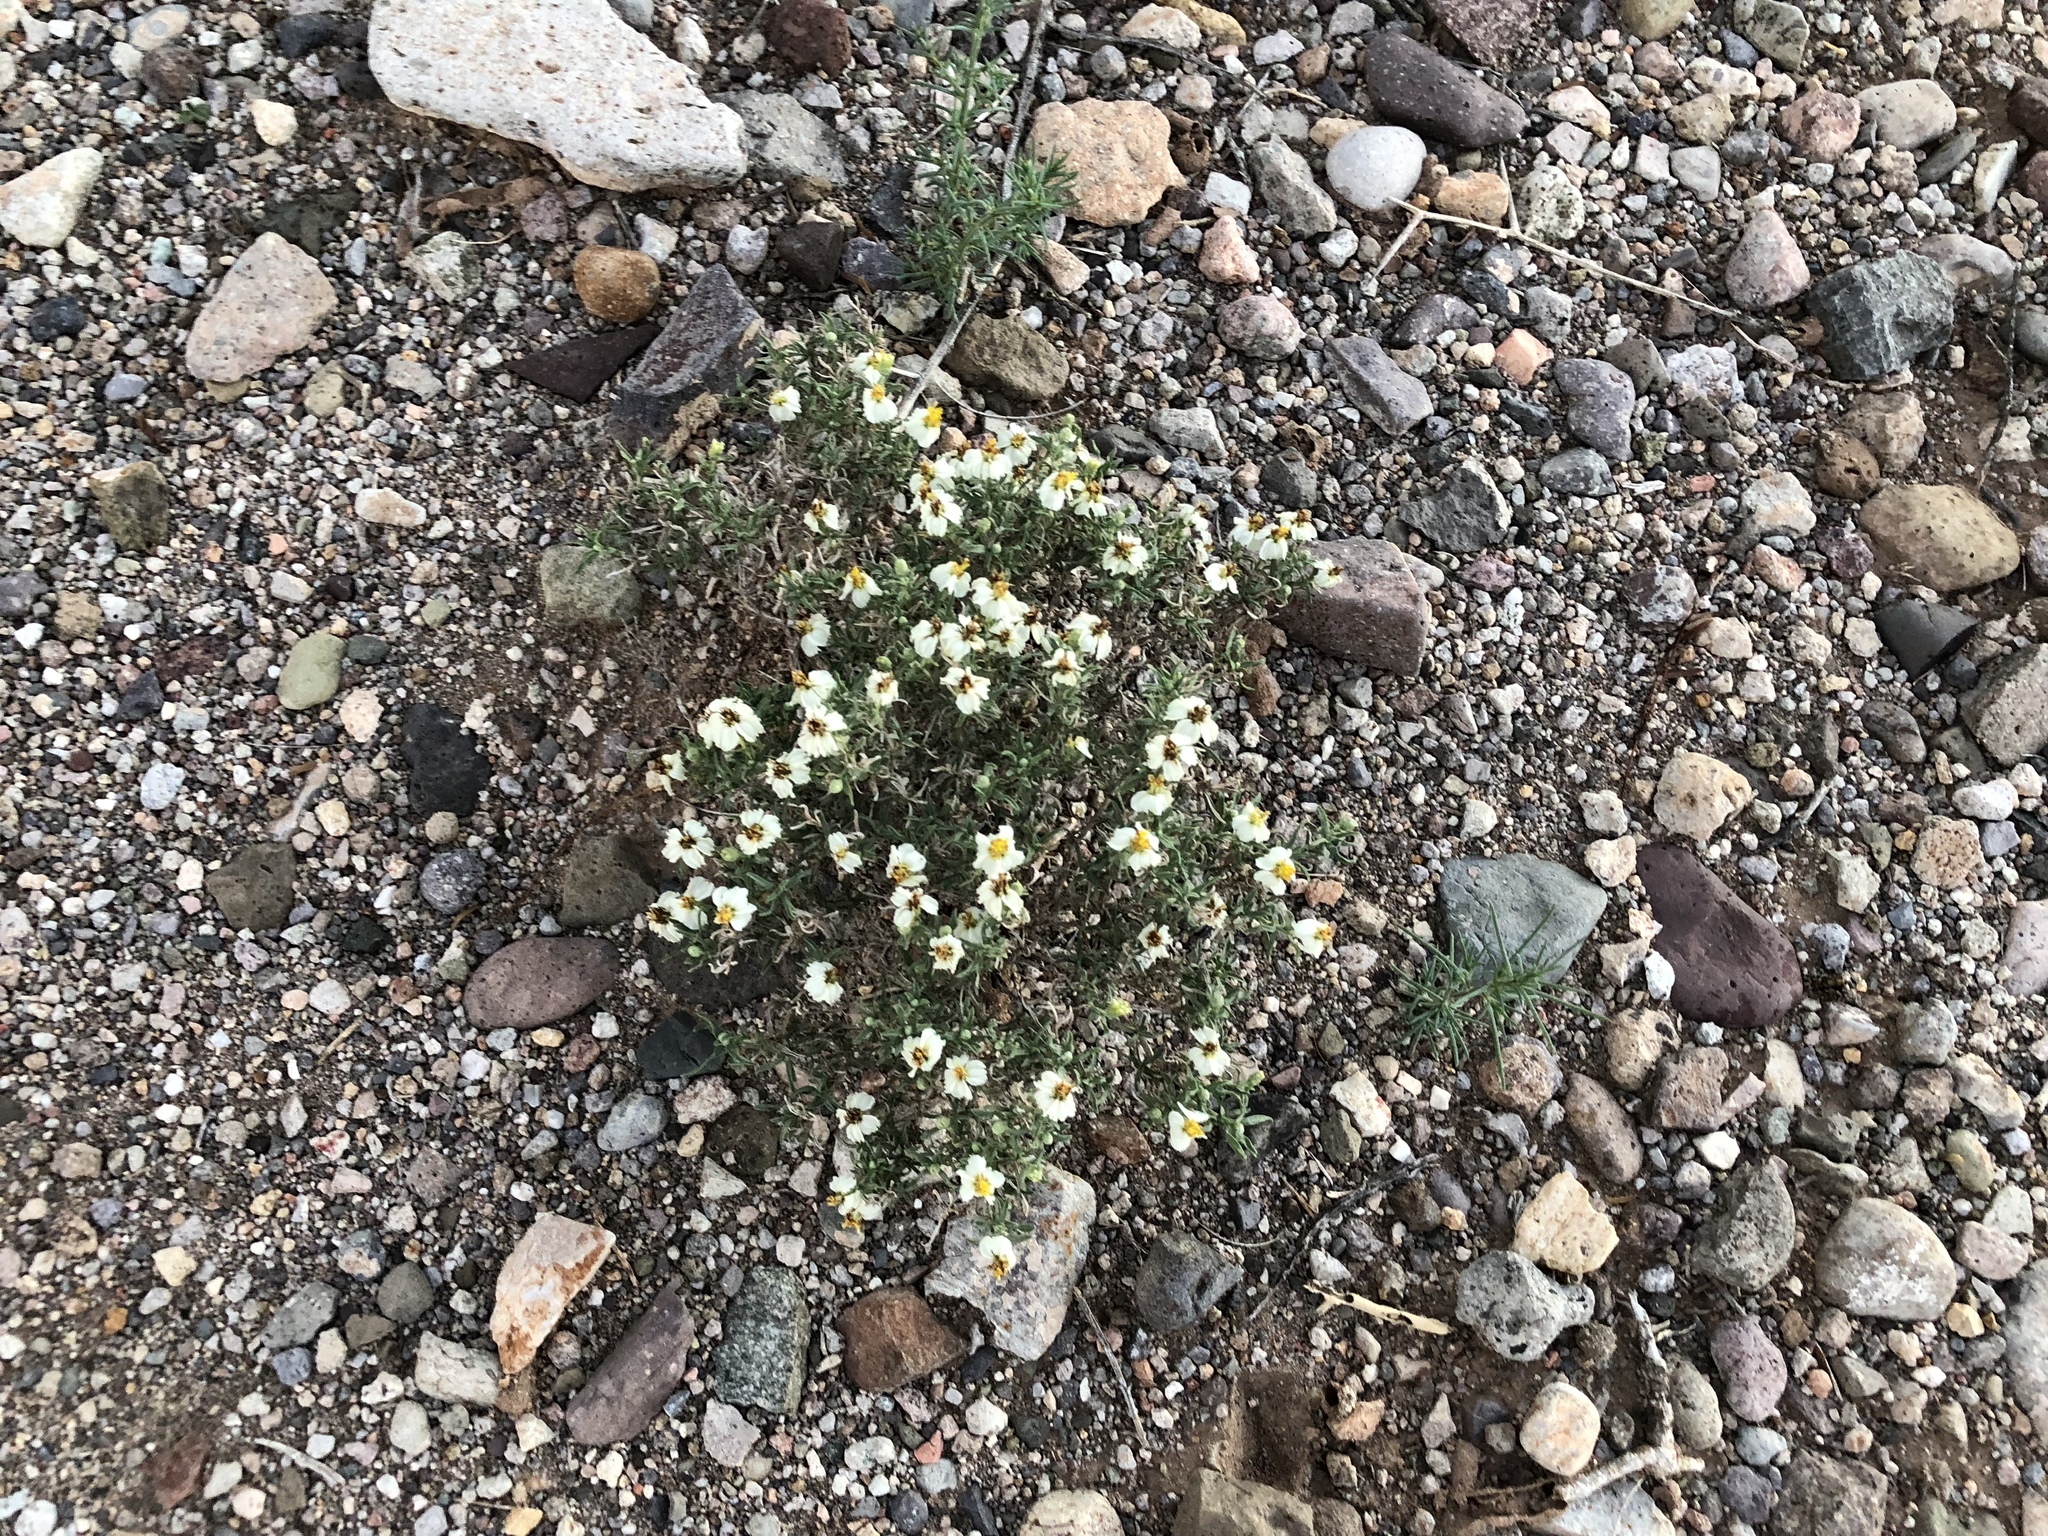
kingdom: Plantae
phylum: Tracheophyta
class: Magnoliopsida
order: Asterales
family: Asteraceae
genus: Zinnia
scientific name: Zinnia acerosa
